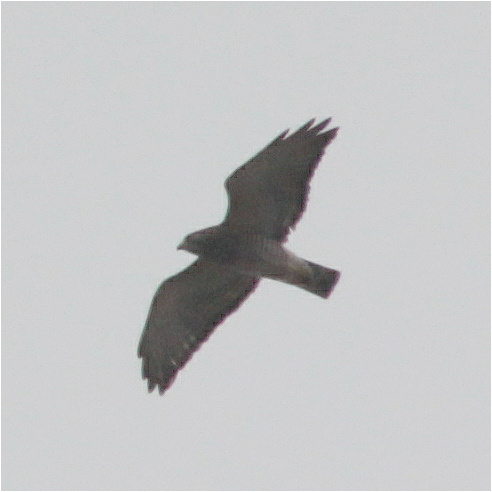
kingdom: Animalia
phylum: Chordata
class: Aves
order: Accipitriformes
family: Accipitridae
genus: Buteo
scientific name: Buteo platypterus
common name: Broad-winged hawk
